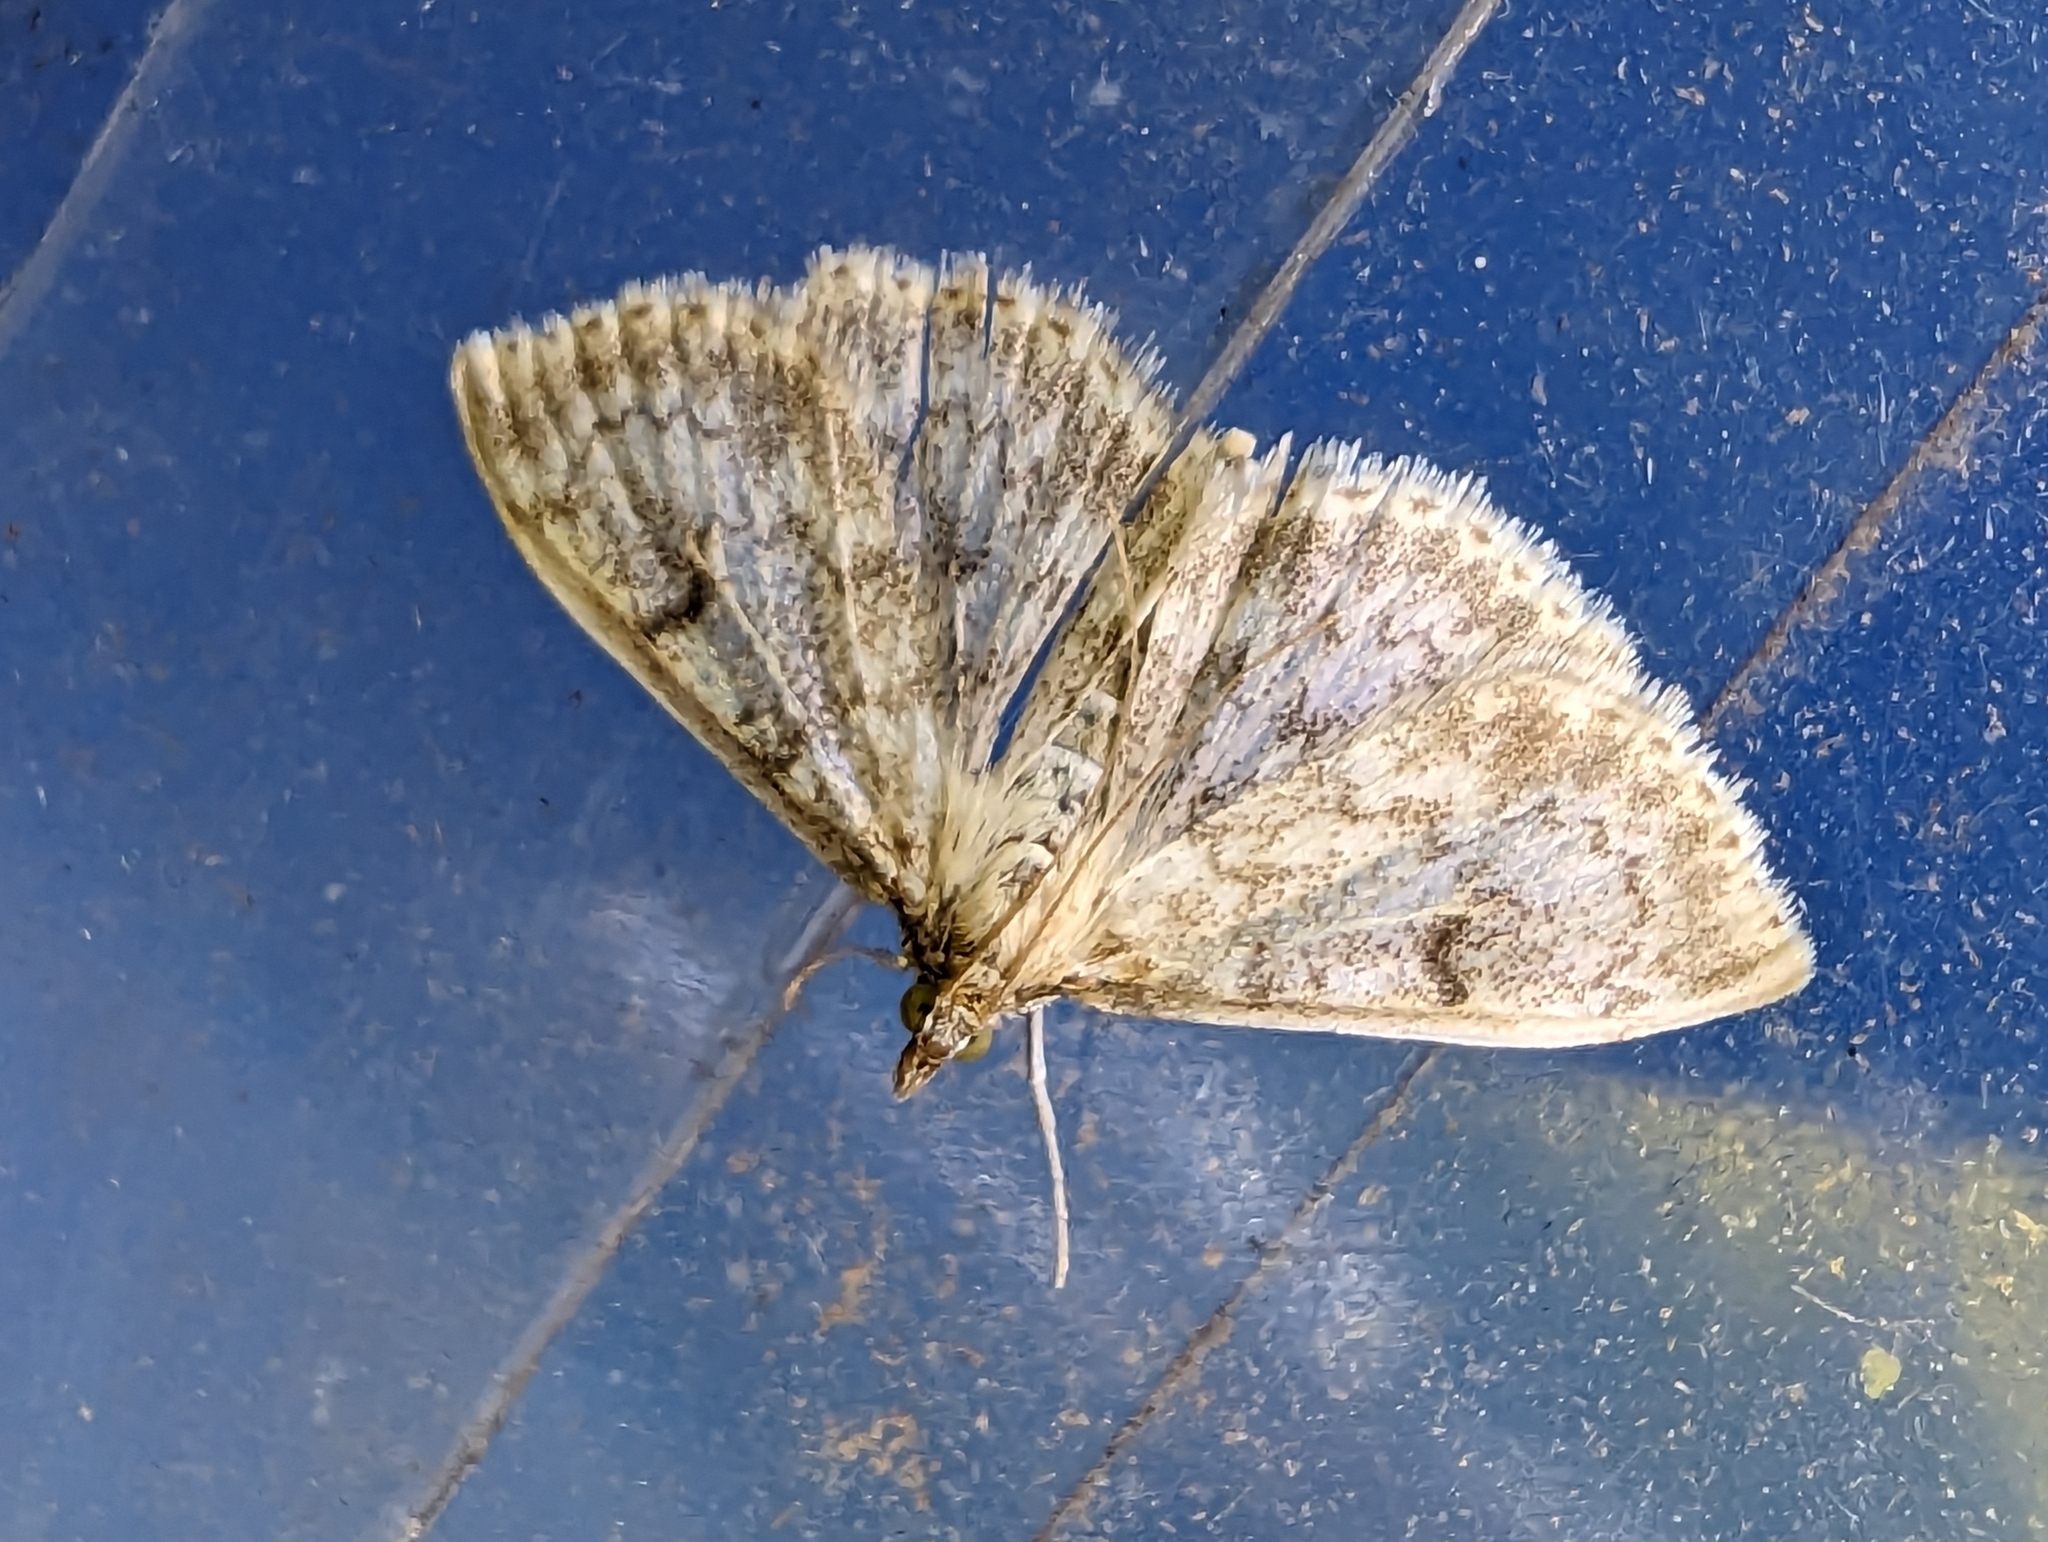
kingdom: Animalia
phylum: Arthropoda
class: Insecta
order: Lepidoptera
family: Crambidae
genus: Anania
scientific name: Anania perlucidalis
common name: Fenland pearl
